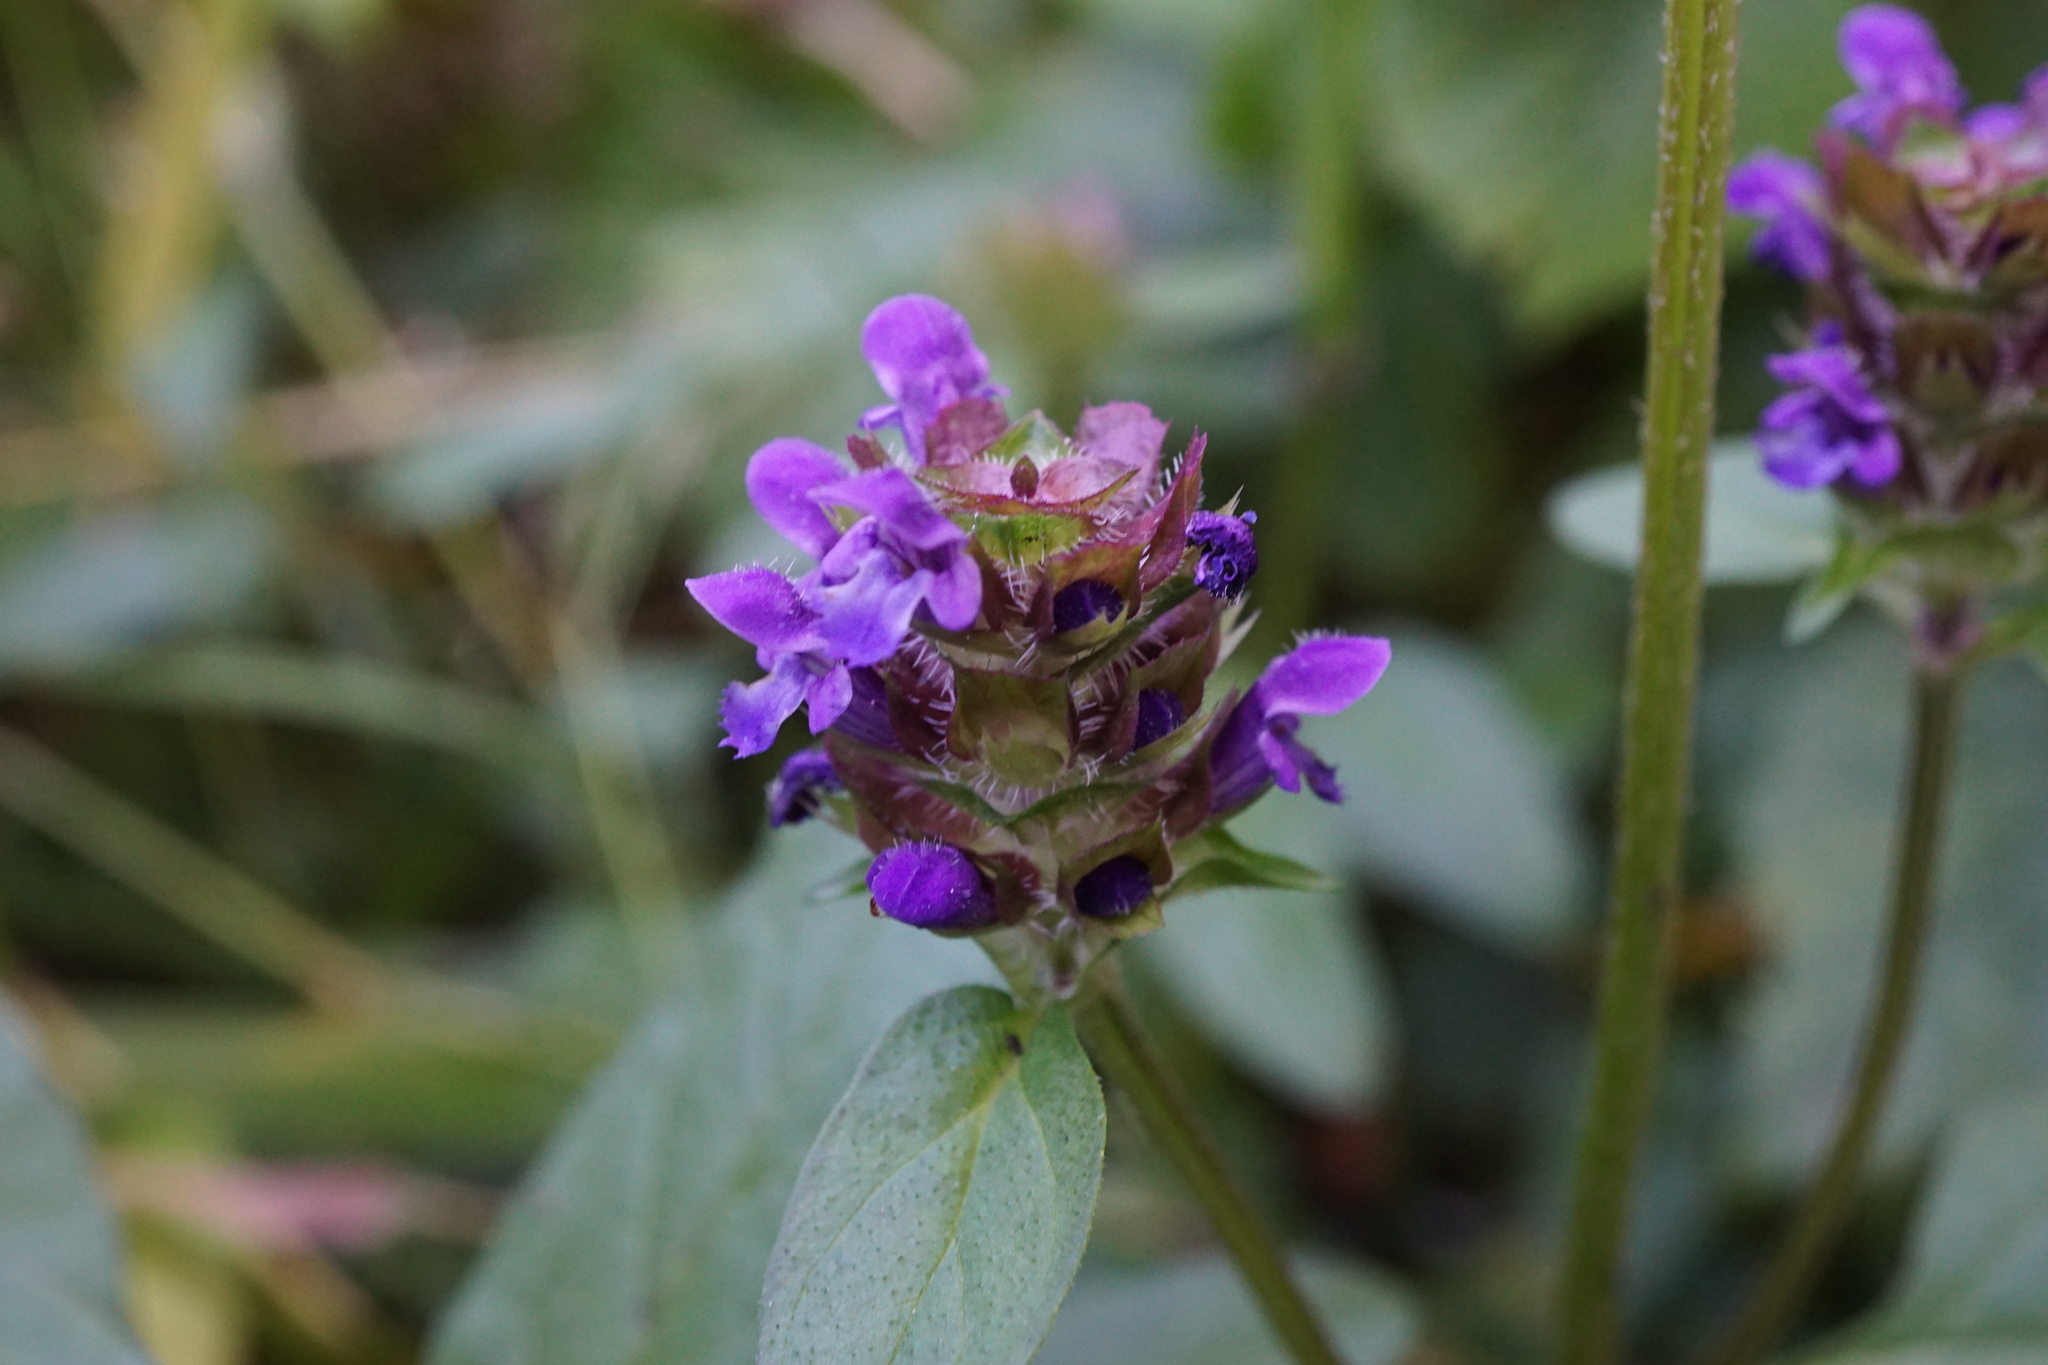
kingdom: Plantae
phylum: Tracheophyta
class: Magnoliopsida
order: Lamiales
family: Lamiaceae
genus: Prunella
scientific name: Prunella vulgaris
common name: Heal-all
